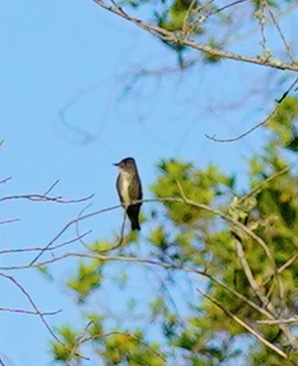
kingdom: Animalia
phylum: Chordata
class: Aves
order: Passeriformes
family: Tyrannidae
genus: Contopus
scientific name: Contopus cooperi
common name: Olive-sided flycatcher
